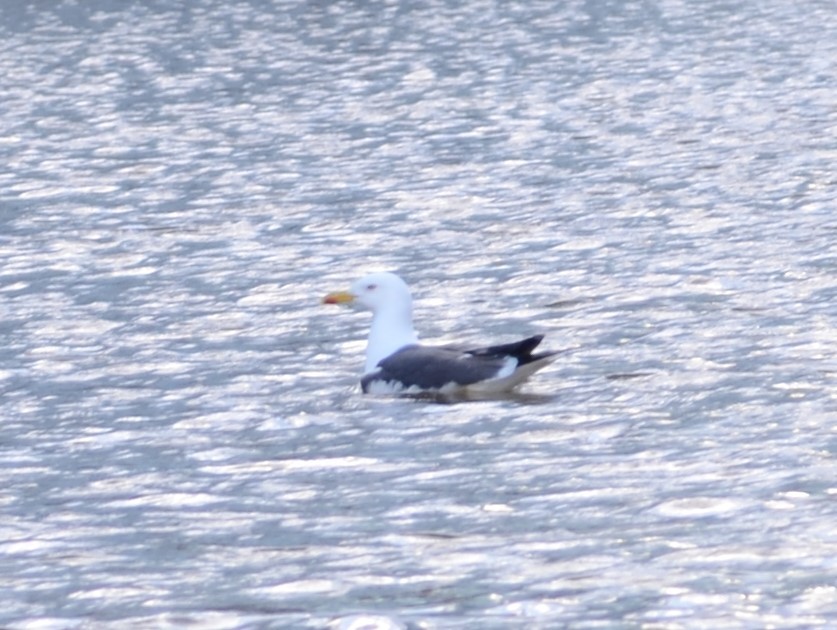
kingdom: Animalia
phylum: Chordata
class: Aves
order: Charadriiformes
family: Laridae
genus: Larus
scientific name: Larus fuscus
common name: Lesser black-backed gull
